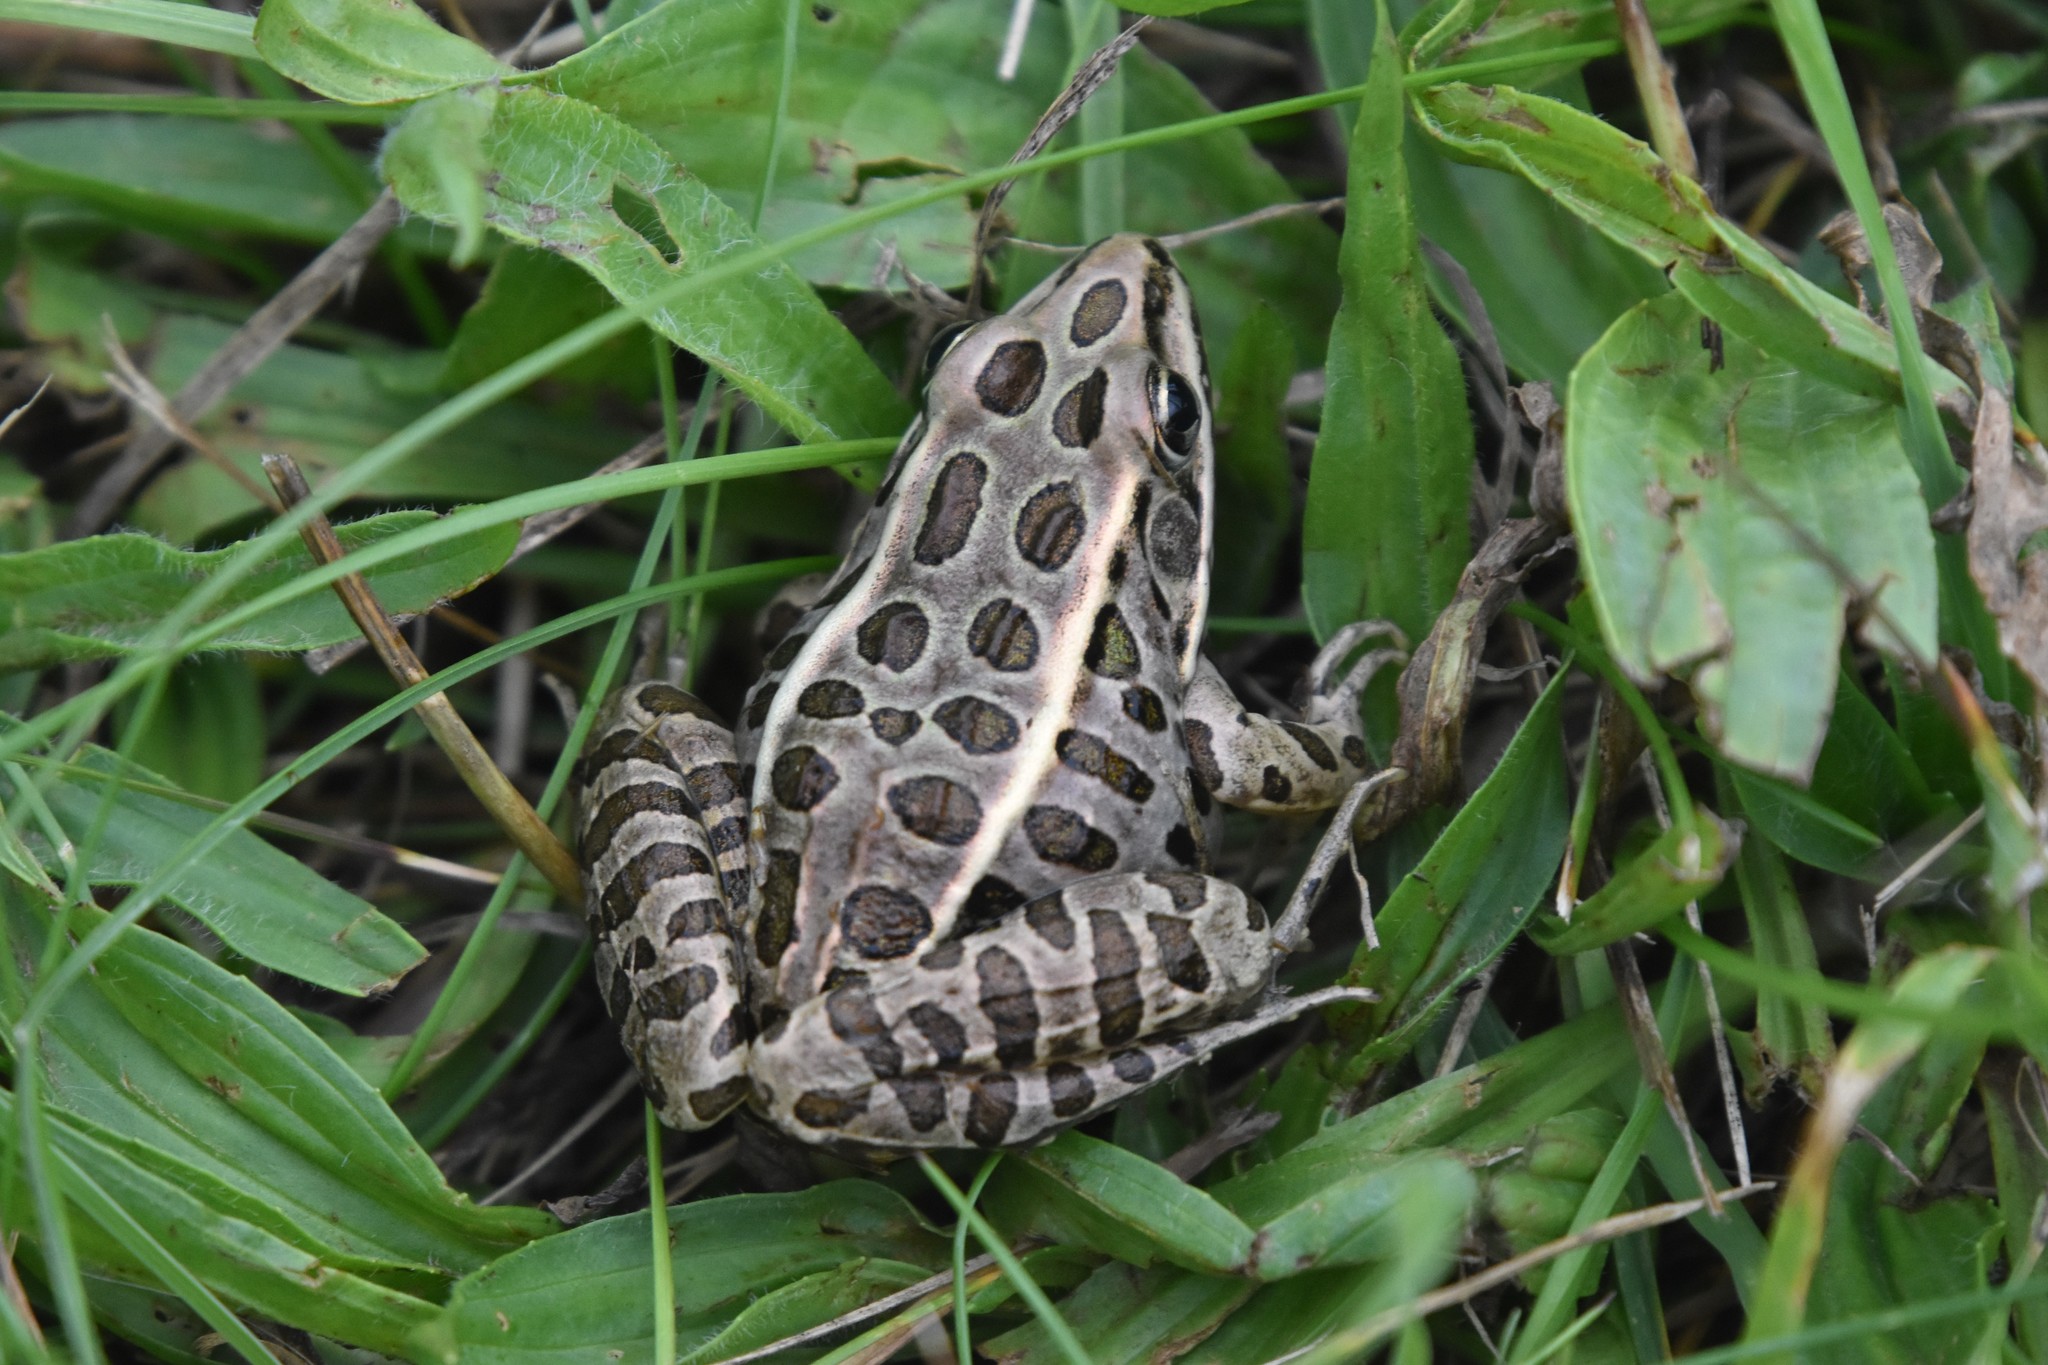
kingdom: Animalia
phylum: Chordata
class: Amphibia
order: Anura
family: Ranidae
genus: Lithobates
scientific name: Lithobates pipiens
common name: Northern leopard frog
